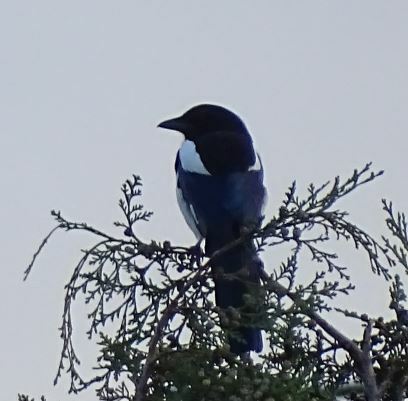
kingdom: Animalia
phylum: Chordata
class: Aves
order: Passeriformes
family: Corvidae
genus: Pica
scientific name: Pica pica
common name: Eurasian magpie
